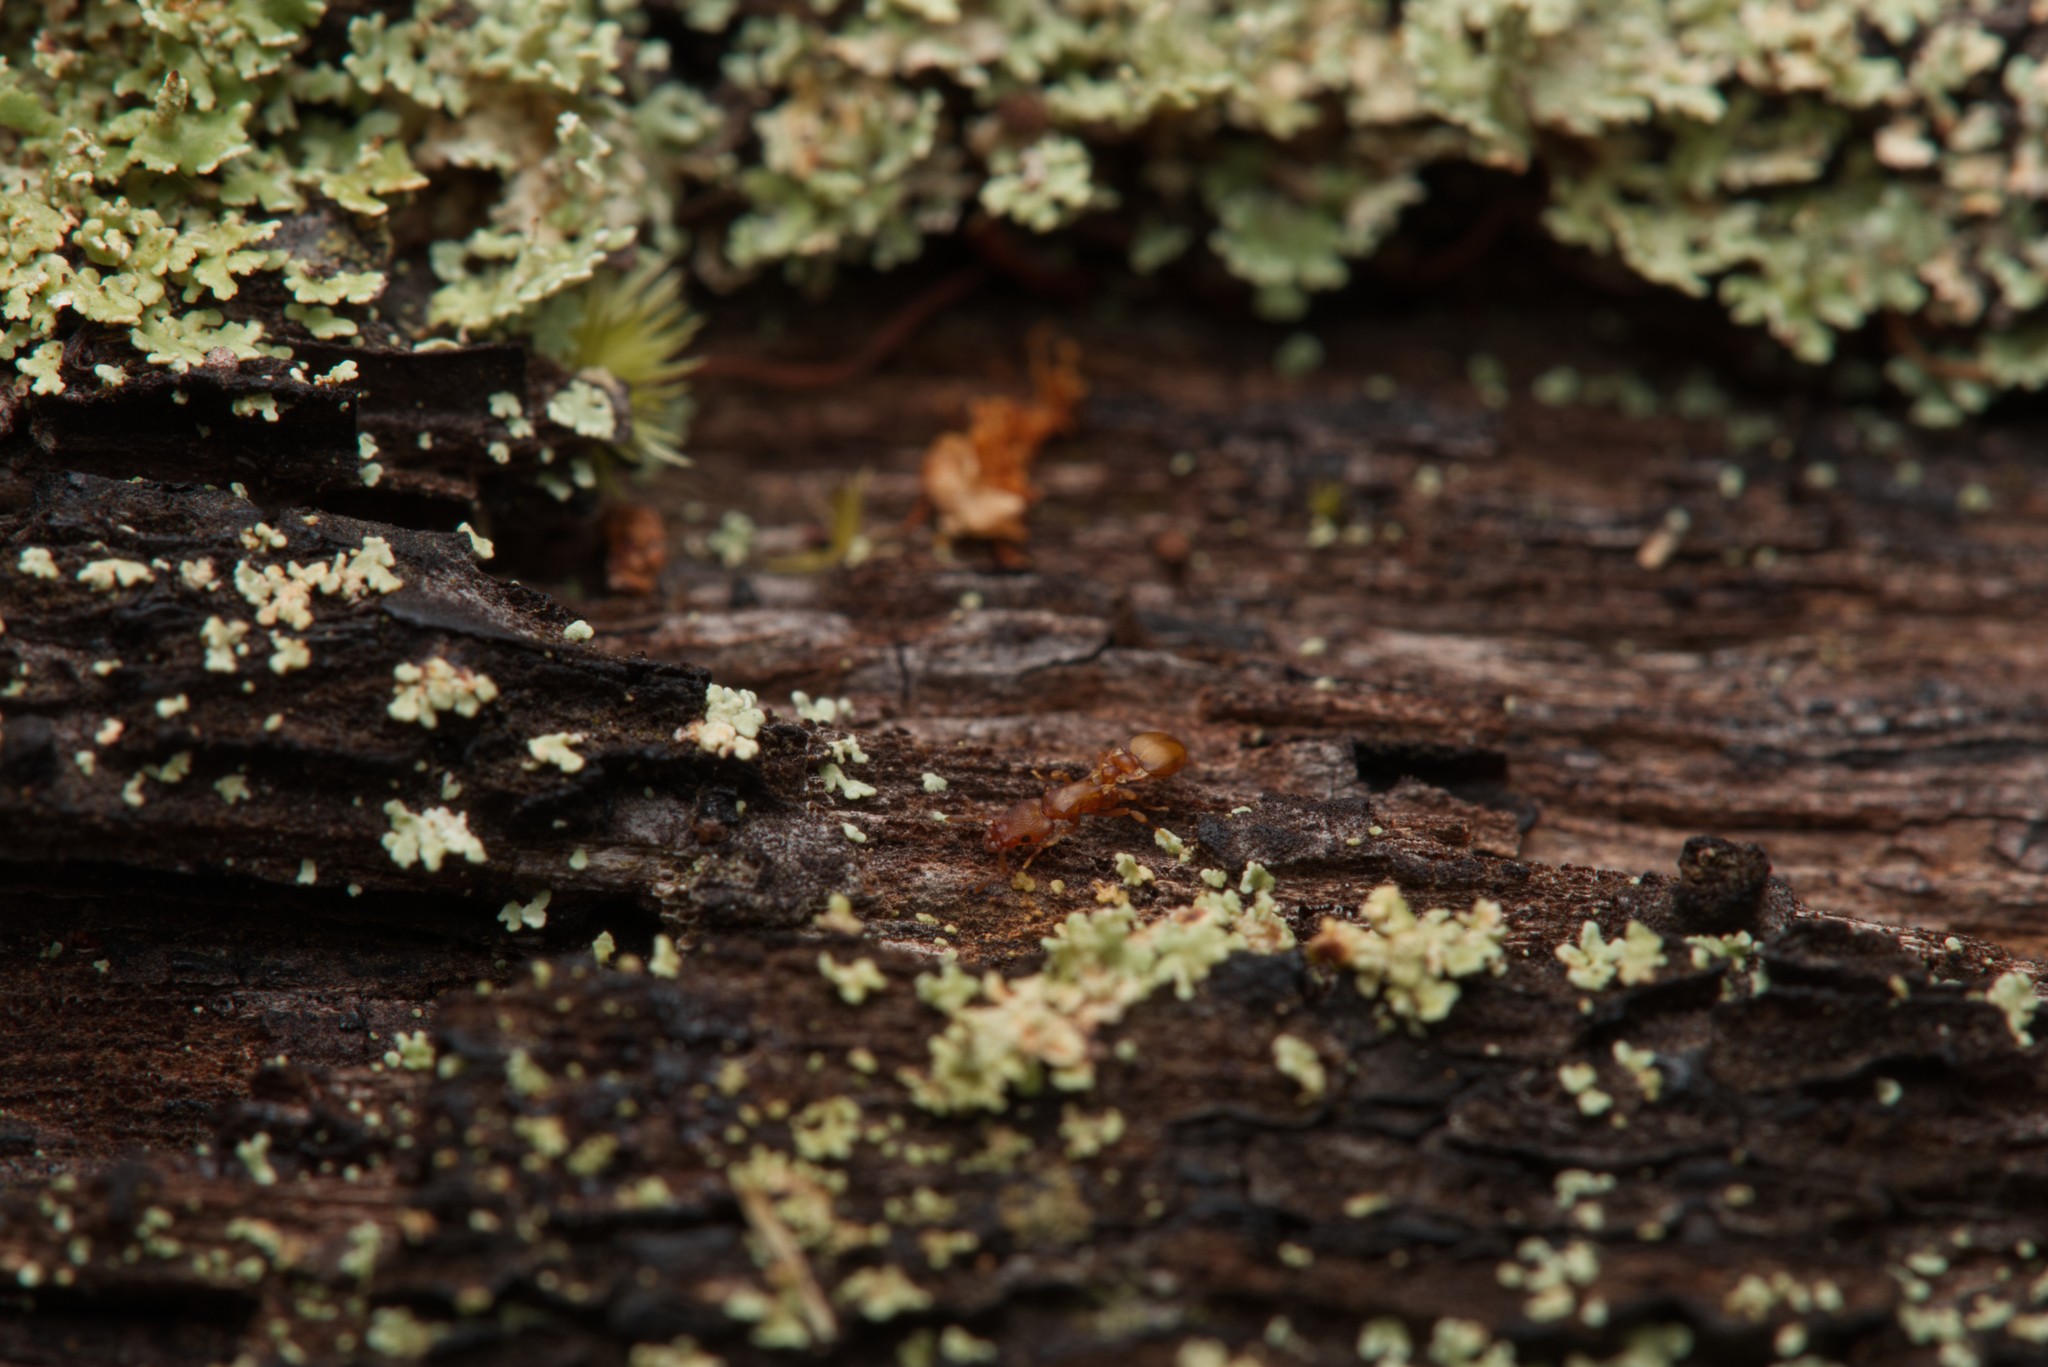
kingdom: Animalia
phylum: Arthropoda
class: Insecta
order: Hymenoptera
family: Formicidae
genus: Colobostruma
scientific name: Colobostruma
